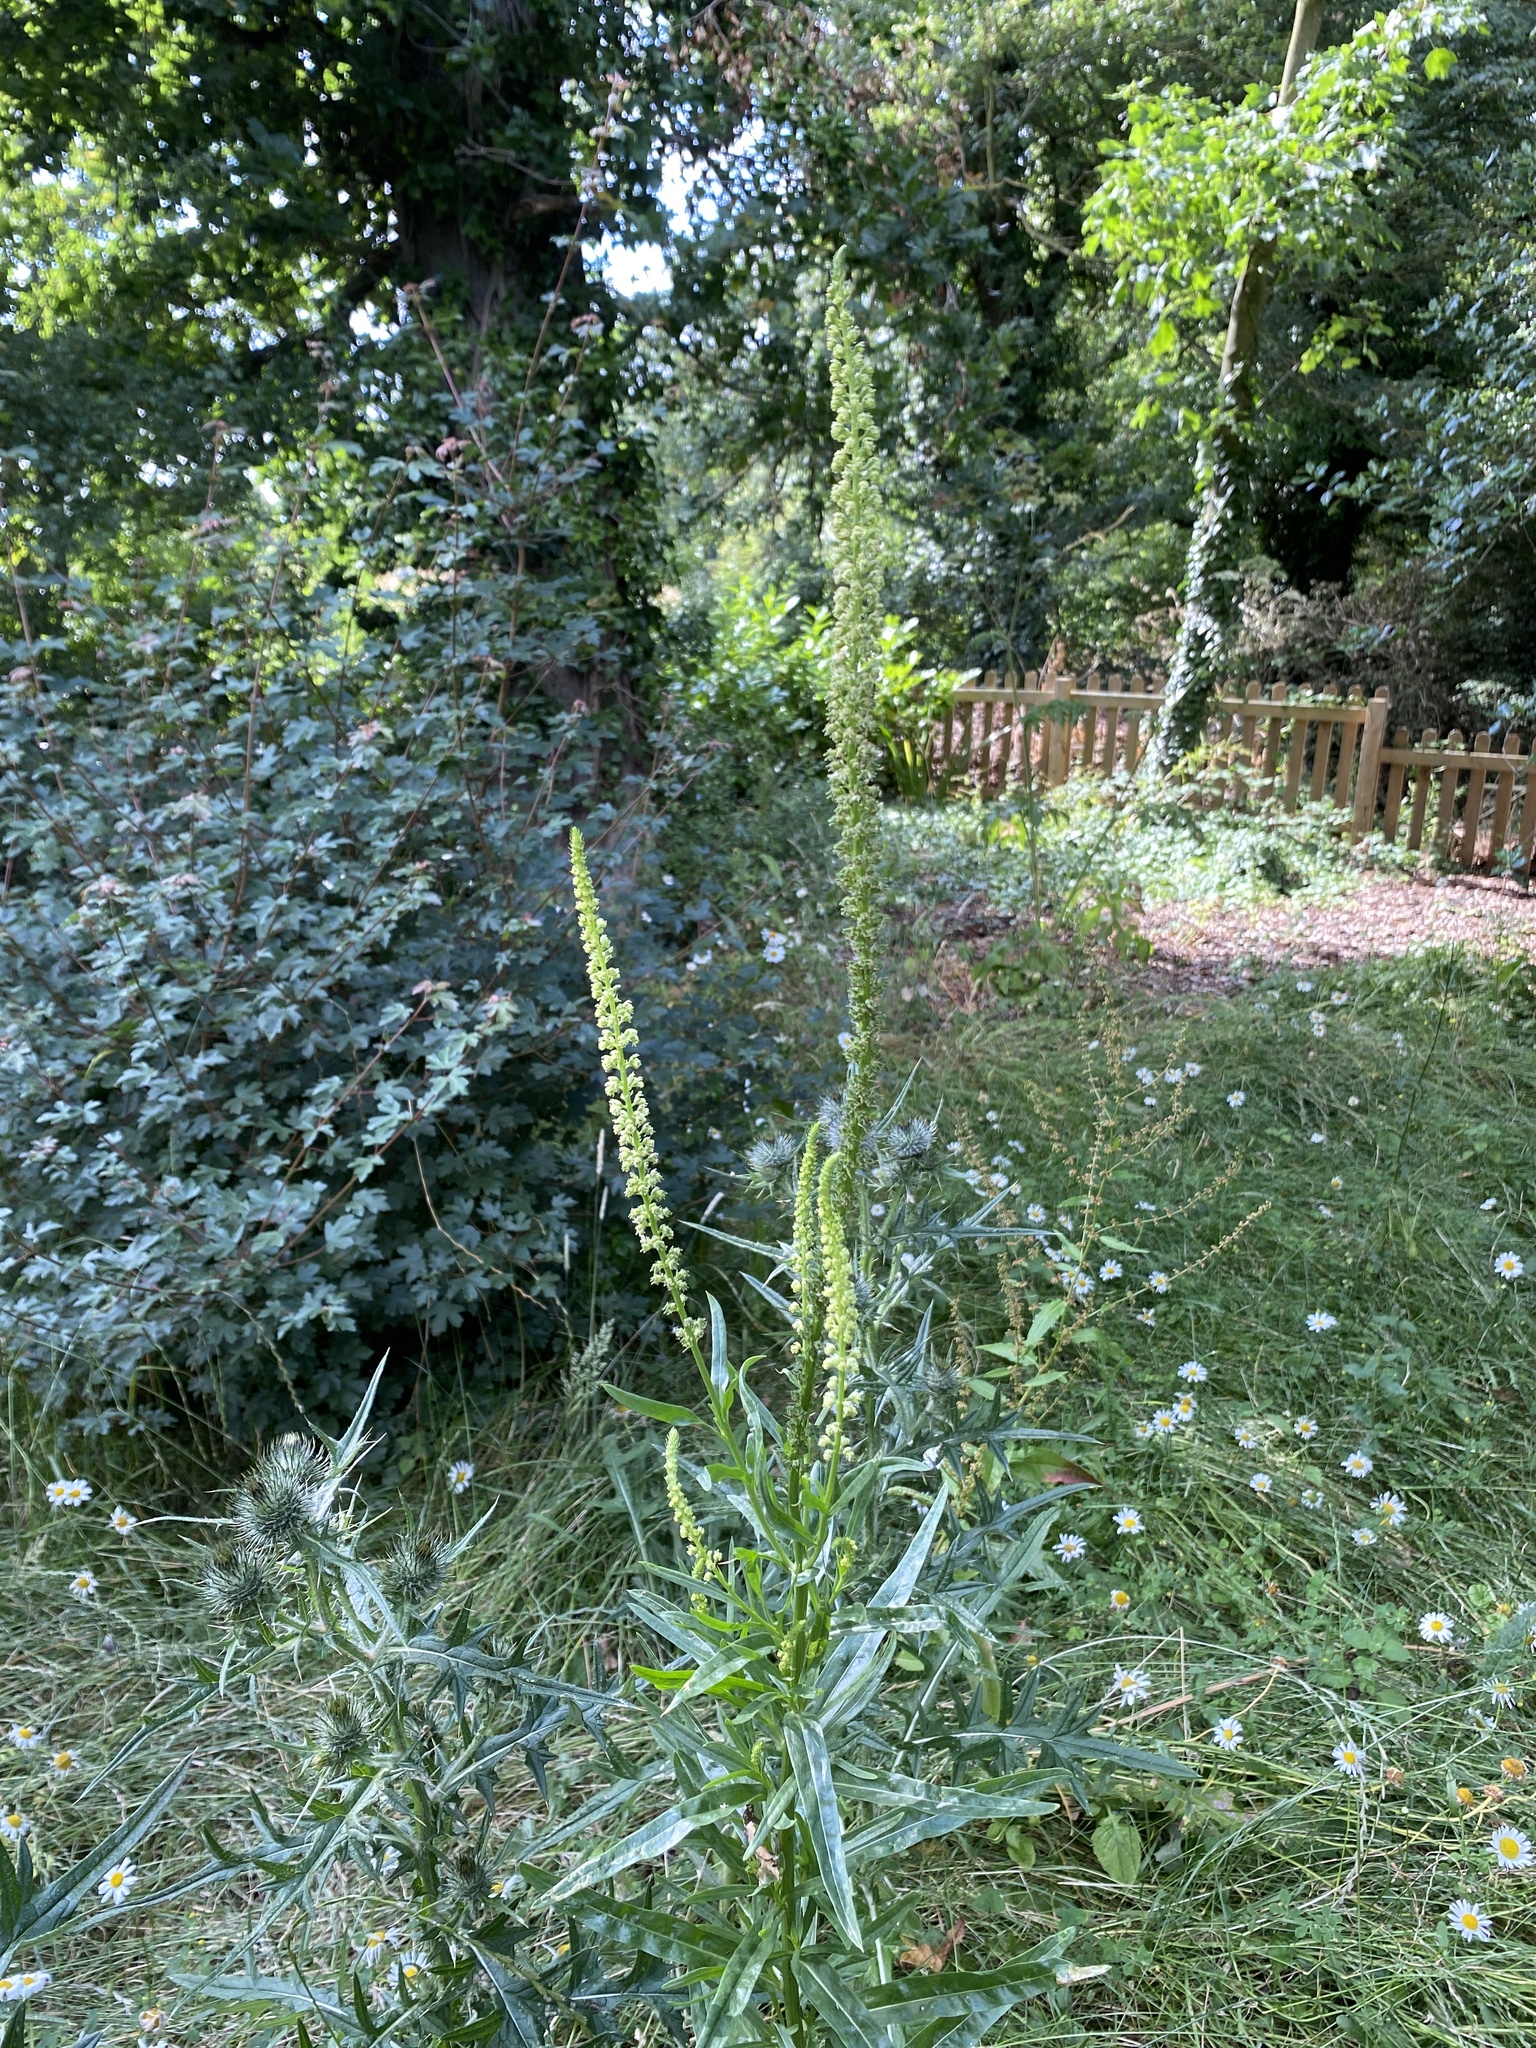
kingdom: Plantae
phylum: Tracheophyta
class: Magnoliopsida
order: Brassicales
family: Resedaceae
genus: Reseda
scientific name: Reseda luteola
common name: Weld
